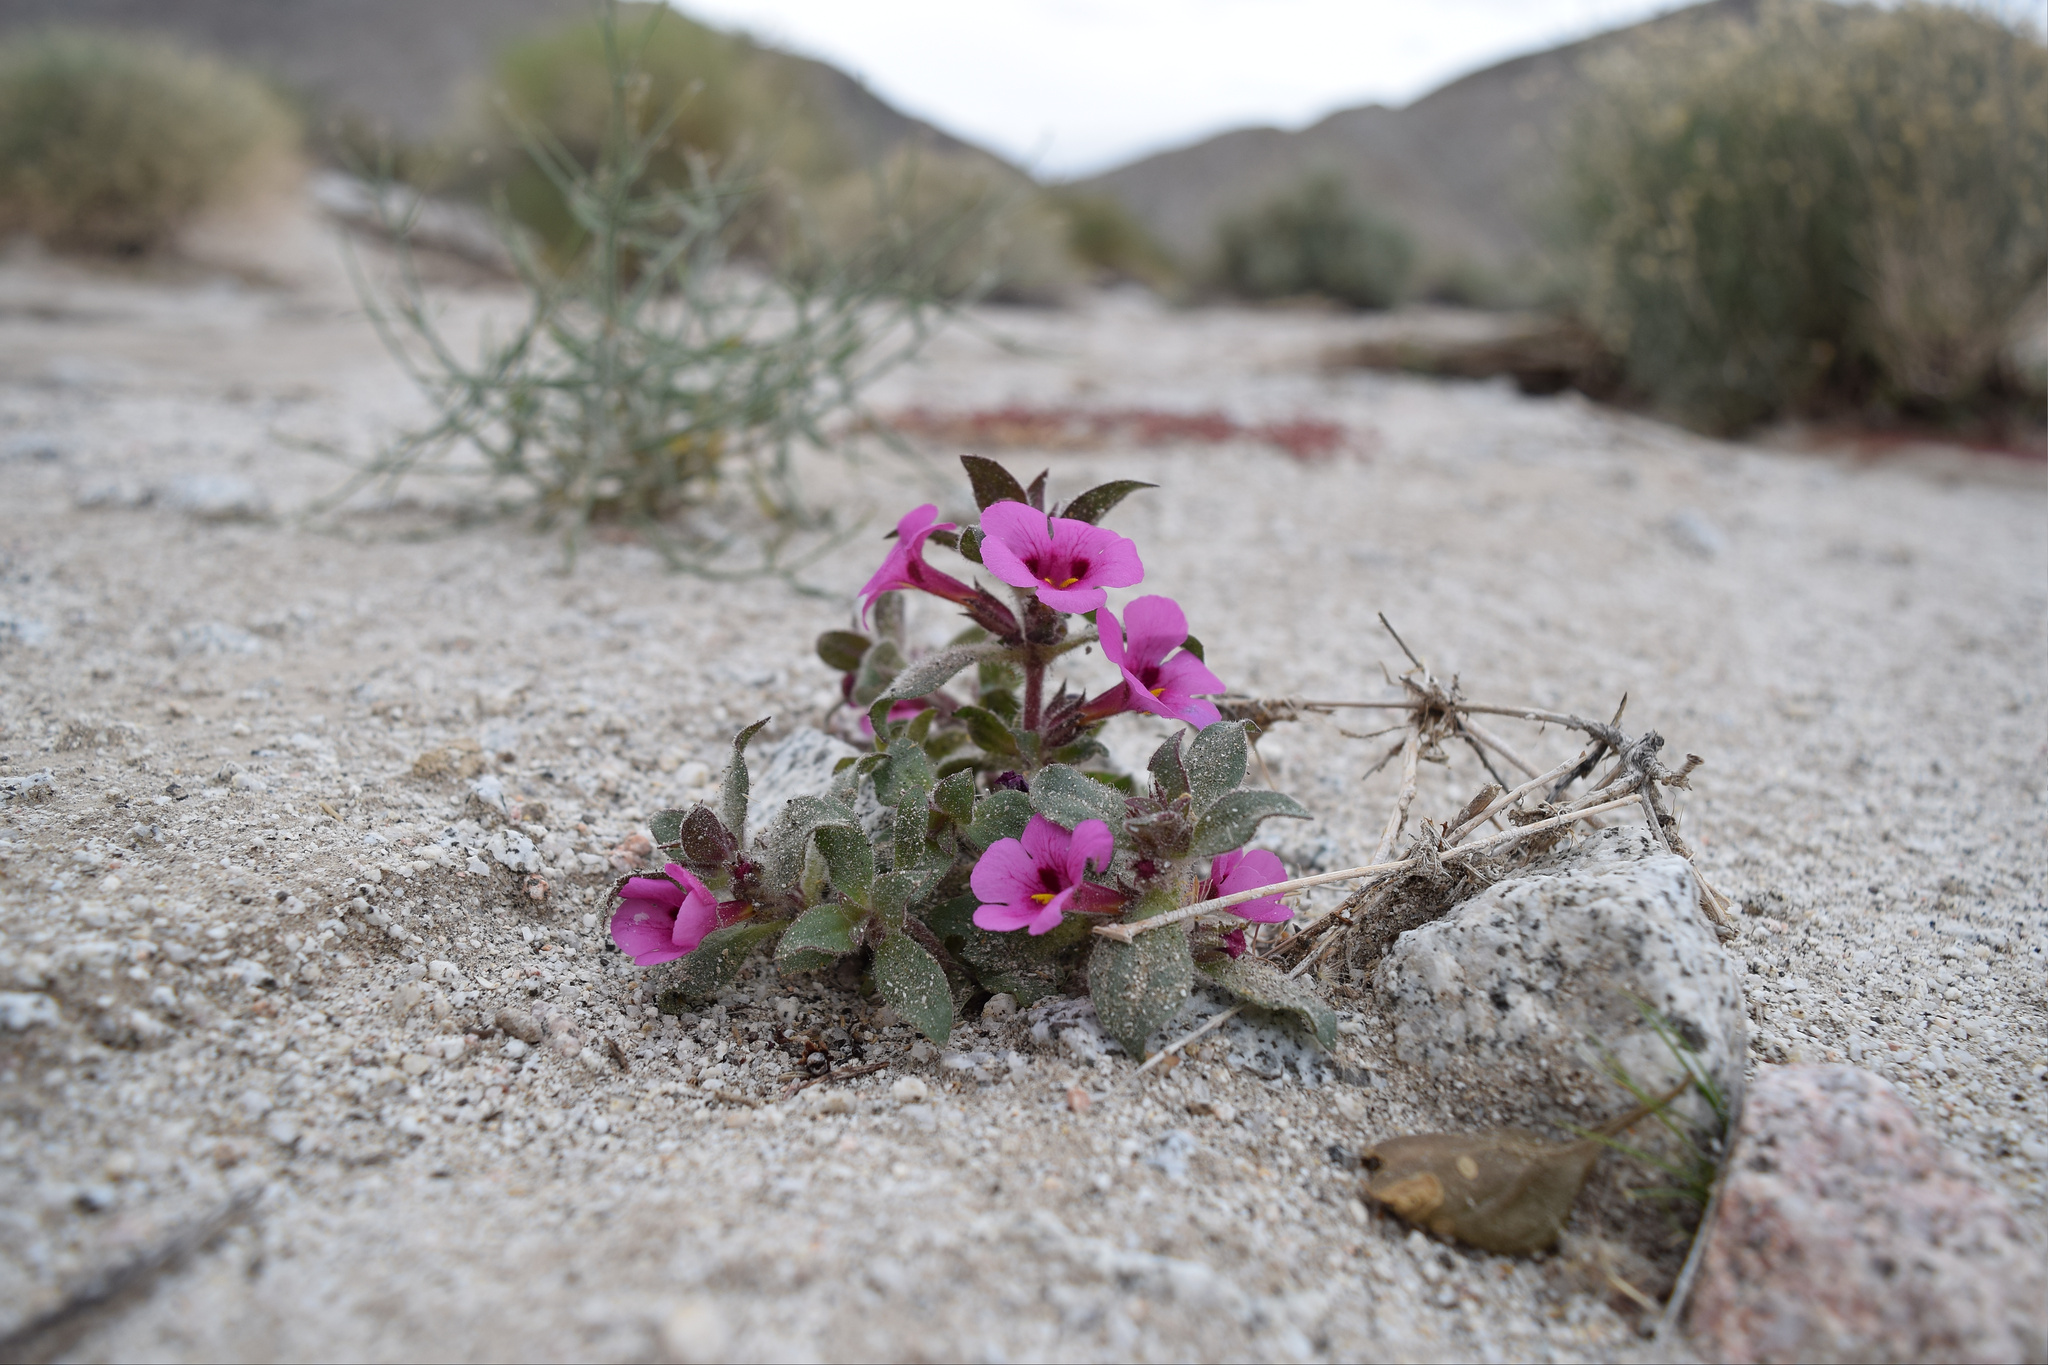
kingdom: Plantae
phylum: Tracheophyta
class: Magnoliopsida
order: Lamiales
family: Phrymaceae
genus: Diplacus
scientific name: Diplacus bigelovii
